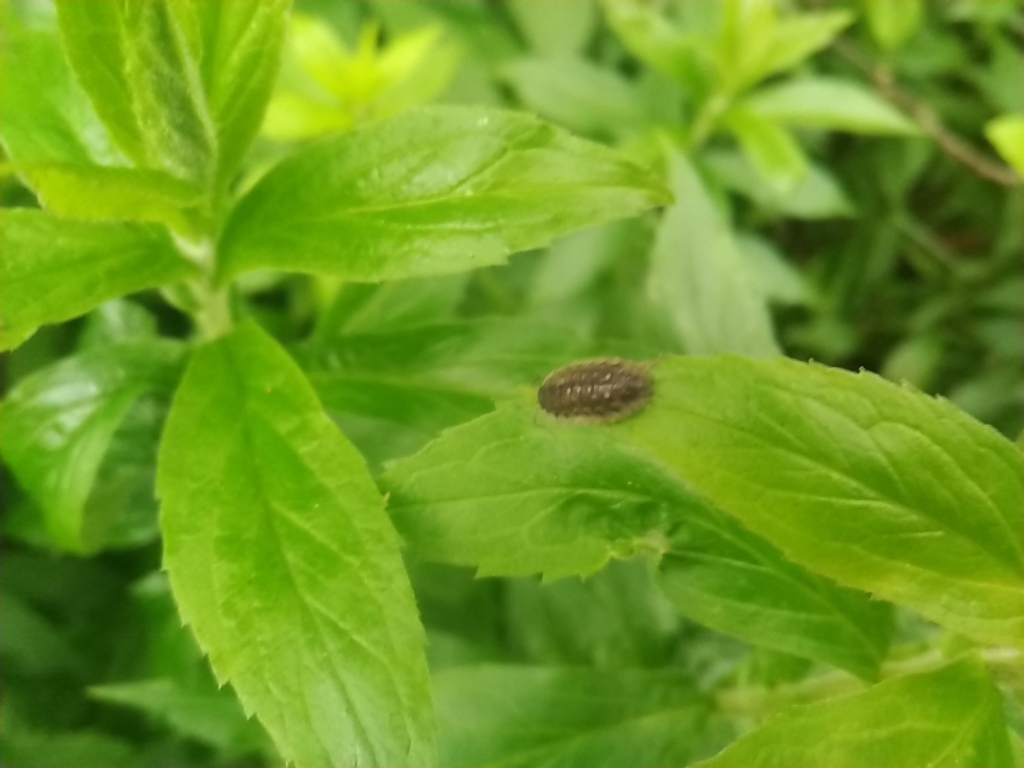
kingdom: Animalia
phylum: Arthropoda
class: Malacostraca
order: Isopoda
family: Oniscidae
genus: Oniscus
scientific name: Oniscus asellus
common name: Common shiny woodlouse
